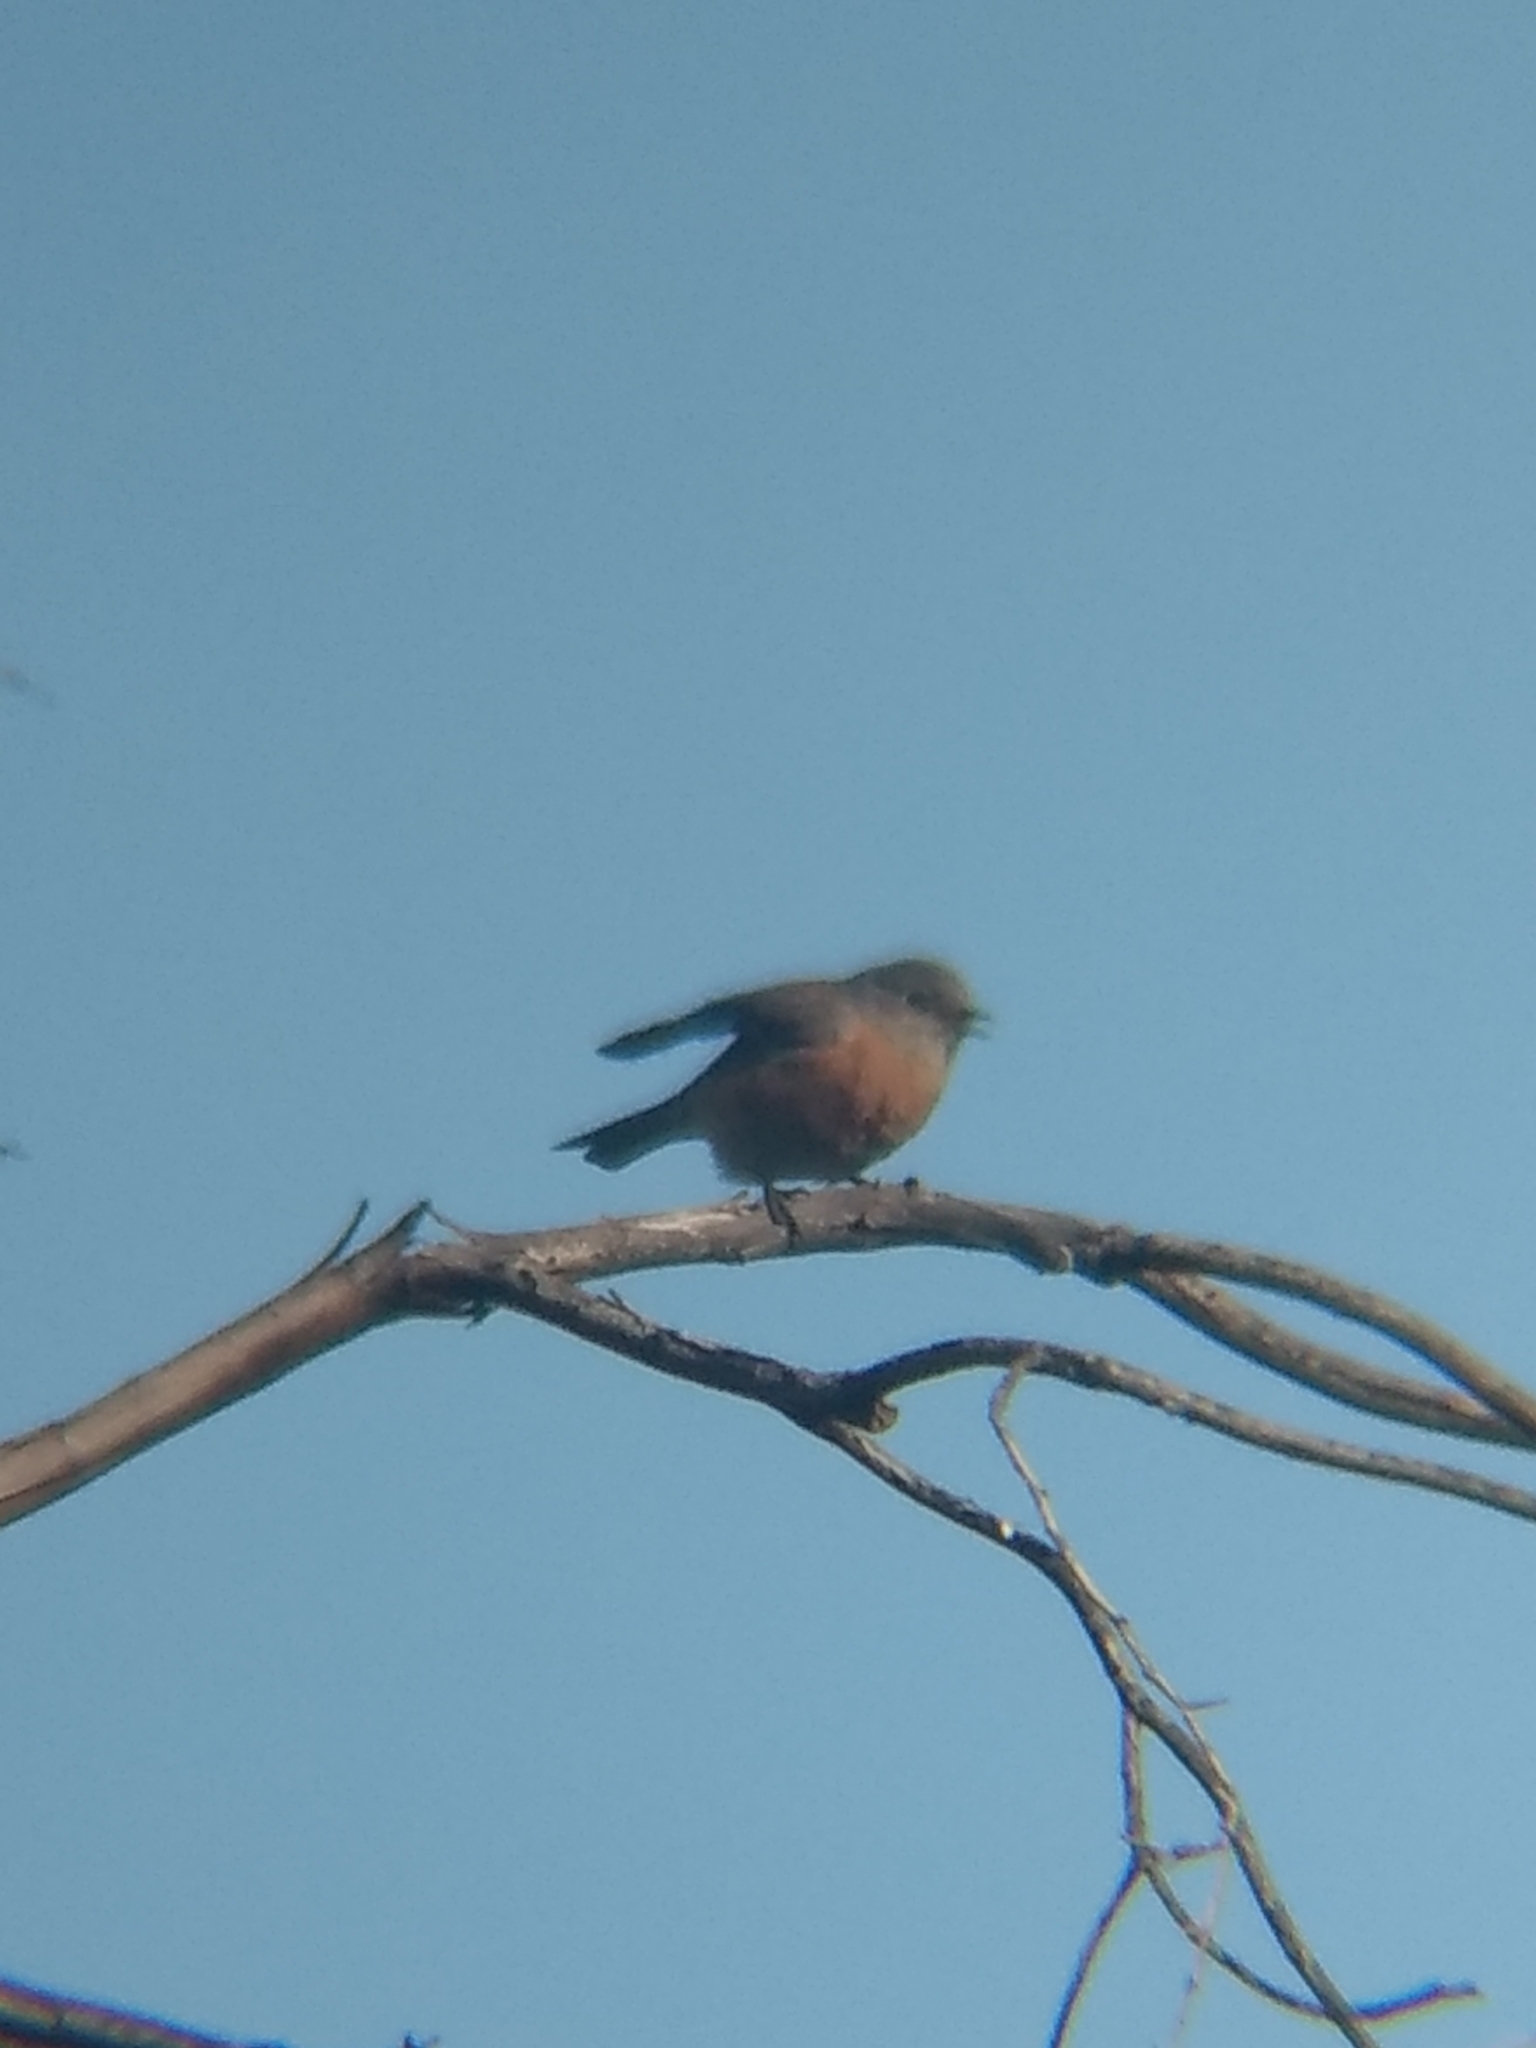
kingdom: Animalia
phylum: Chordata
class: Aves
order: Passeriformes
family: Turdidae
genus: Sialia
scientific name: Sialia mexicana
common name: Western bluebird
